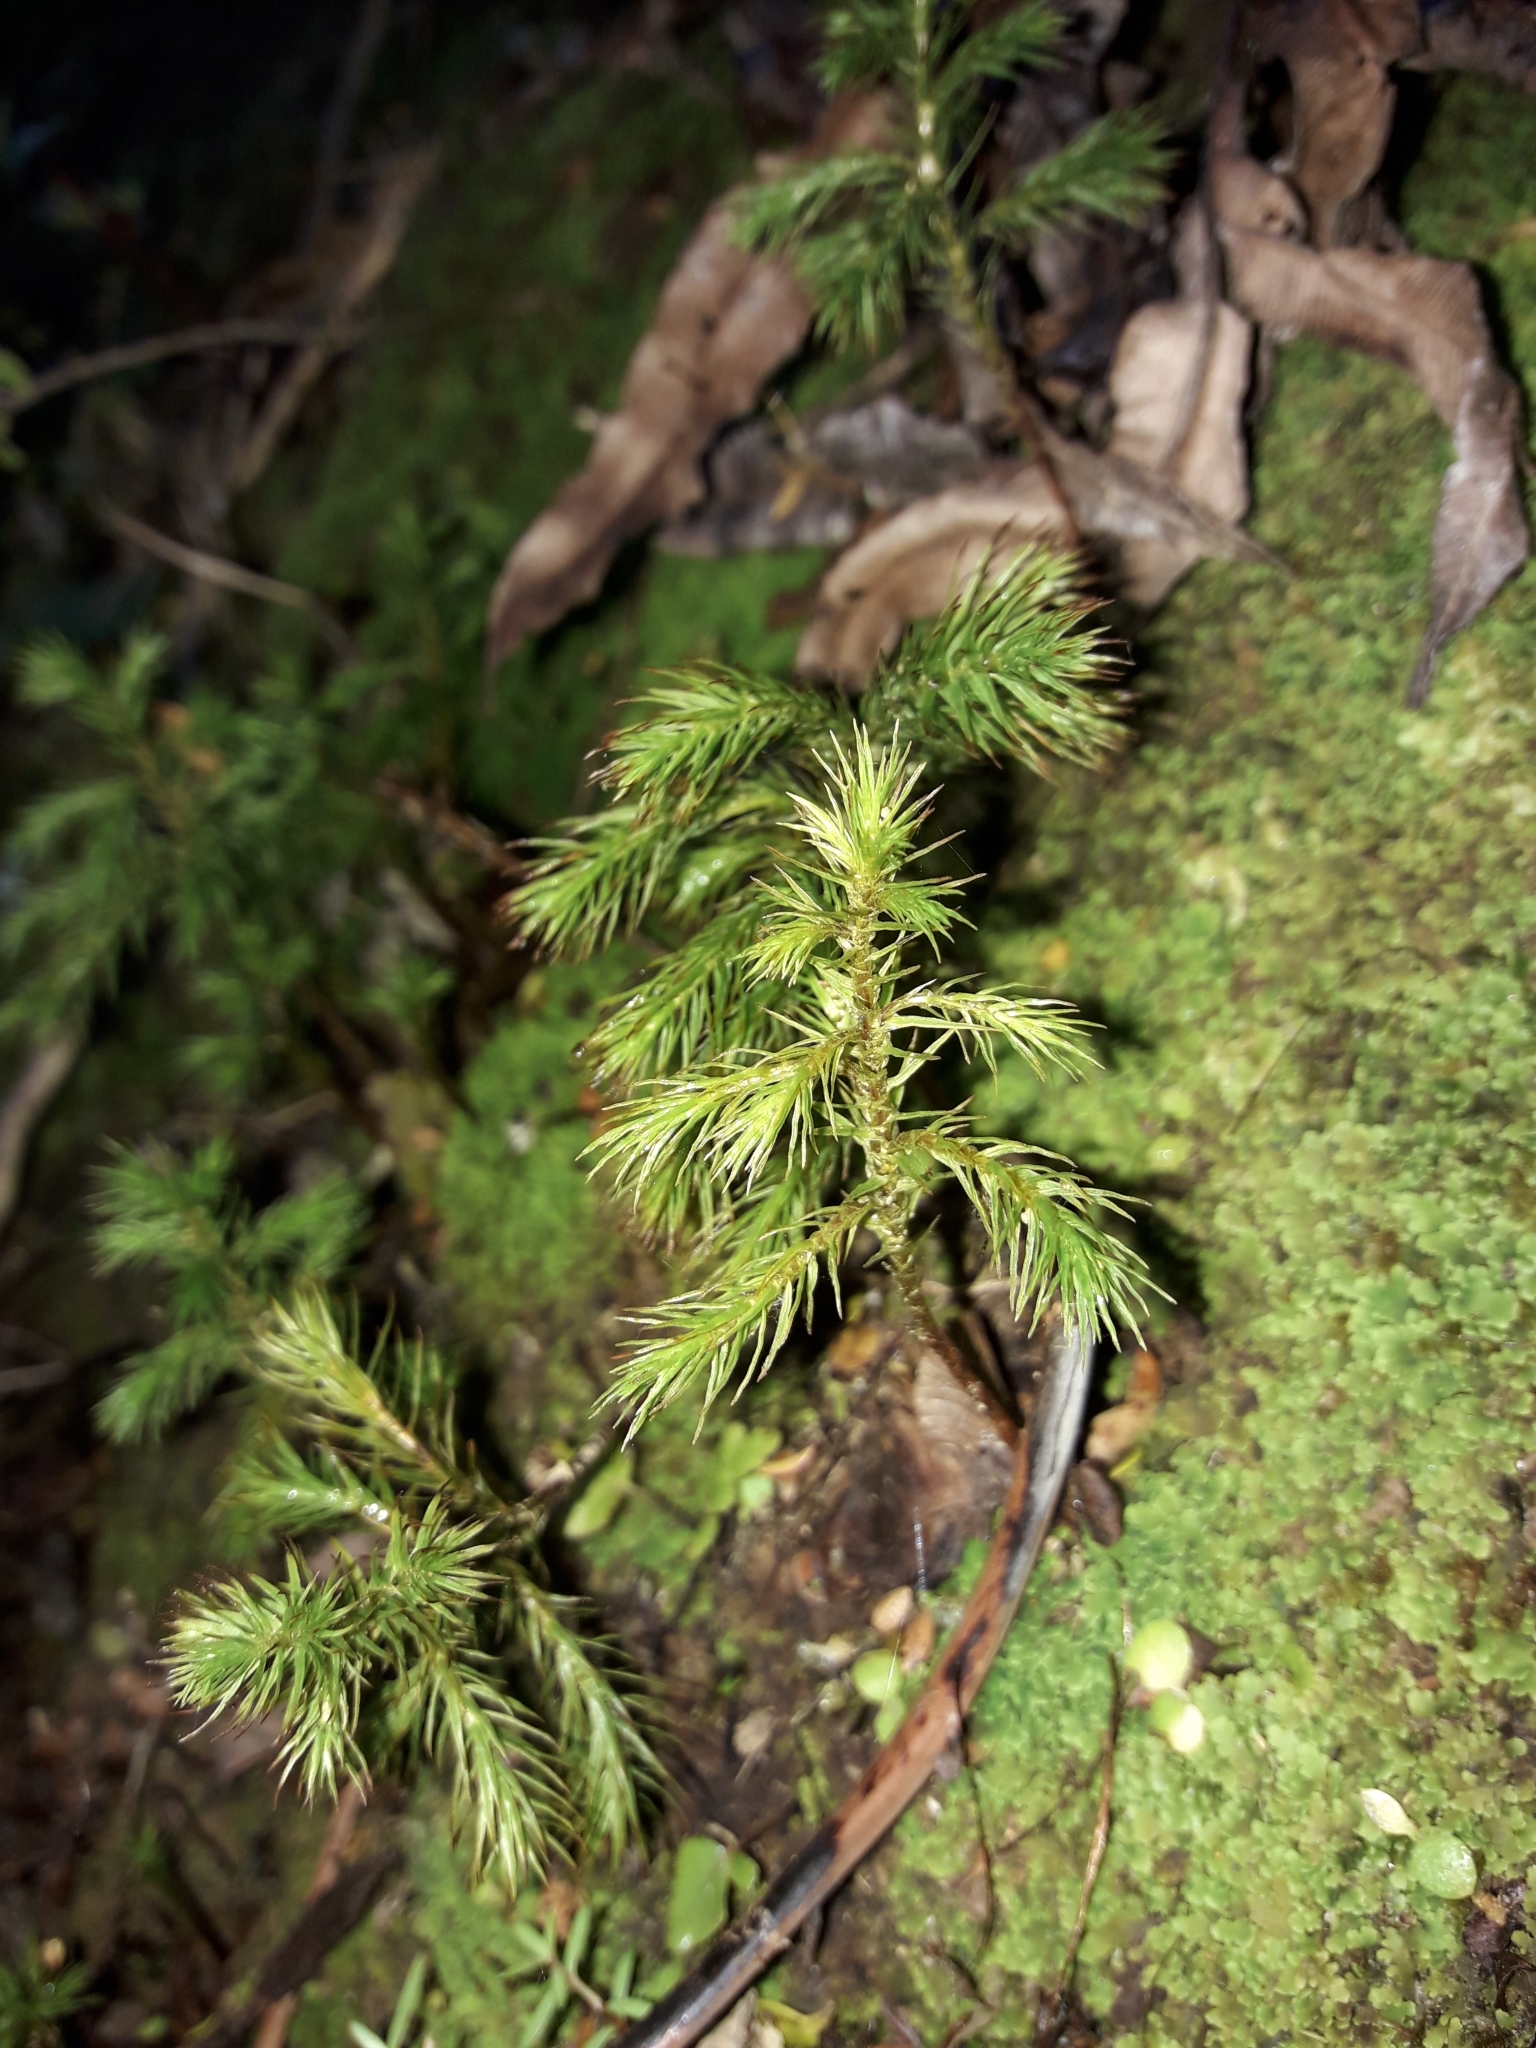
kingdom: Plantae
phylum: Bryophyta
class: Polytrichopsida
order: Polytrichales
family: Polytrichaceae
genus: Dendroligotrichum
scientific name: Dendroligotrichum tongariroense
